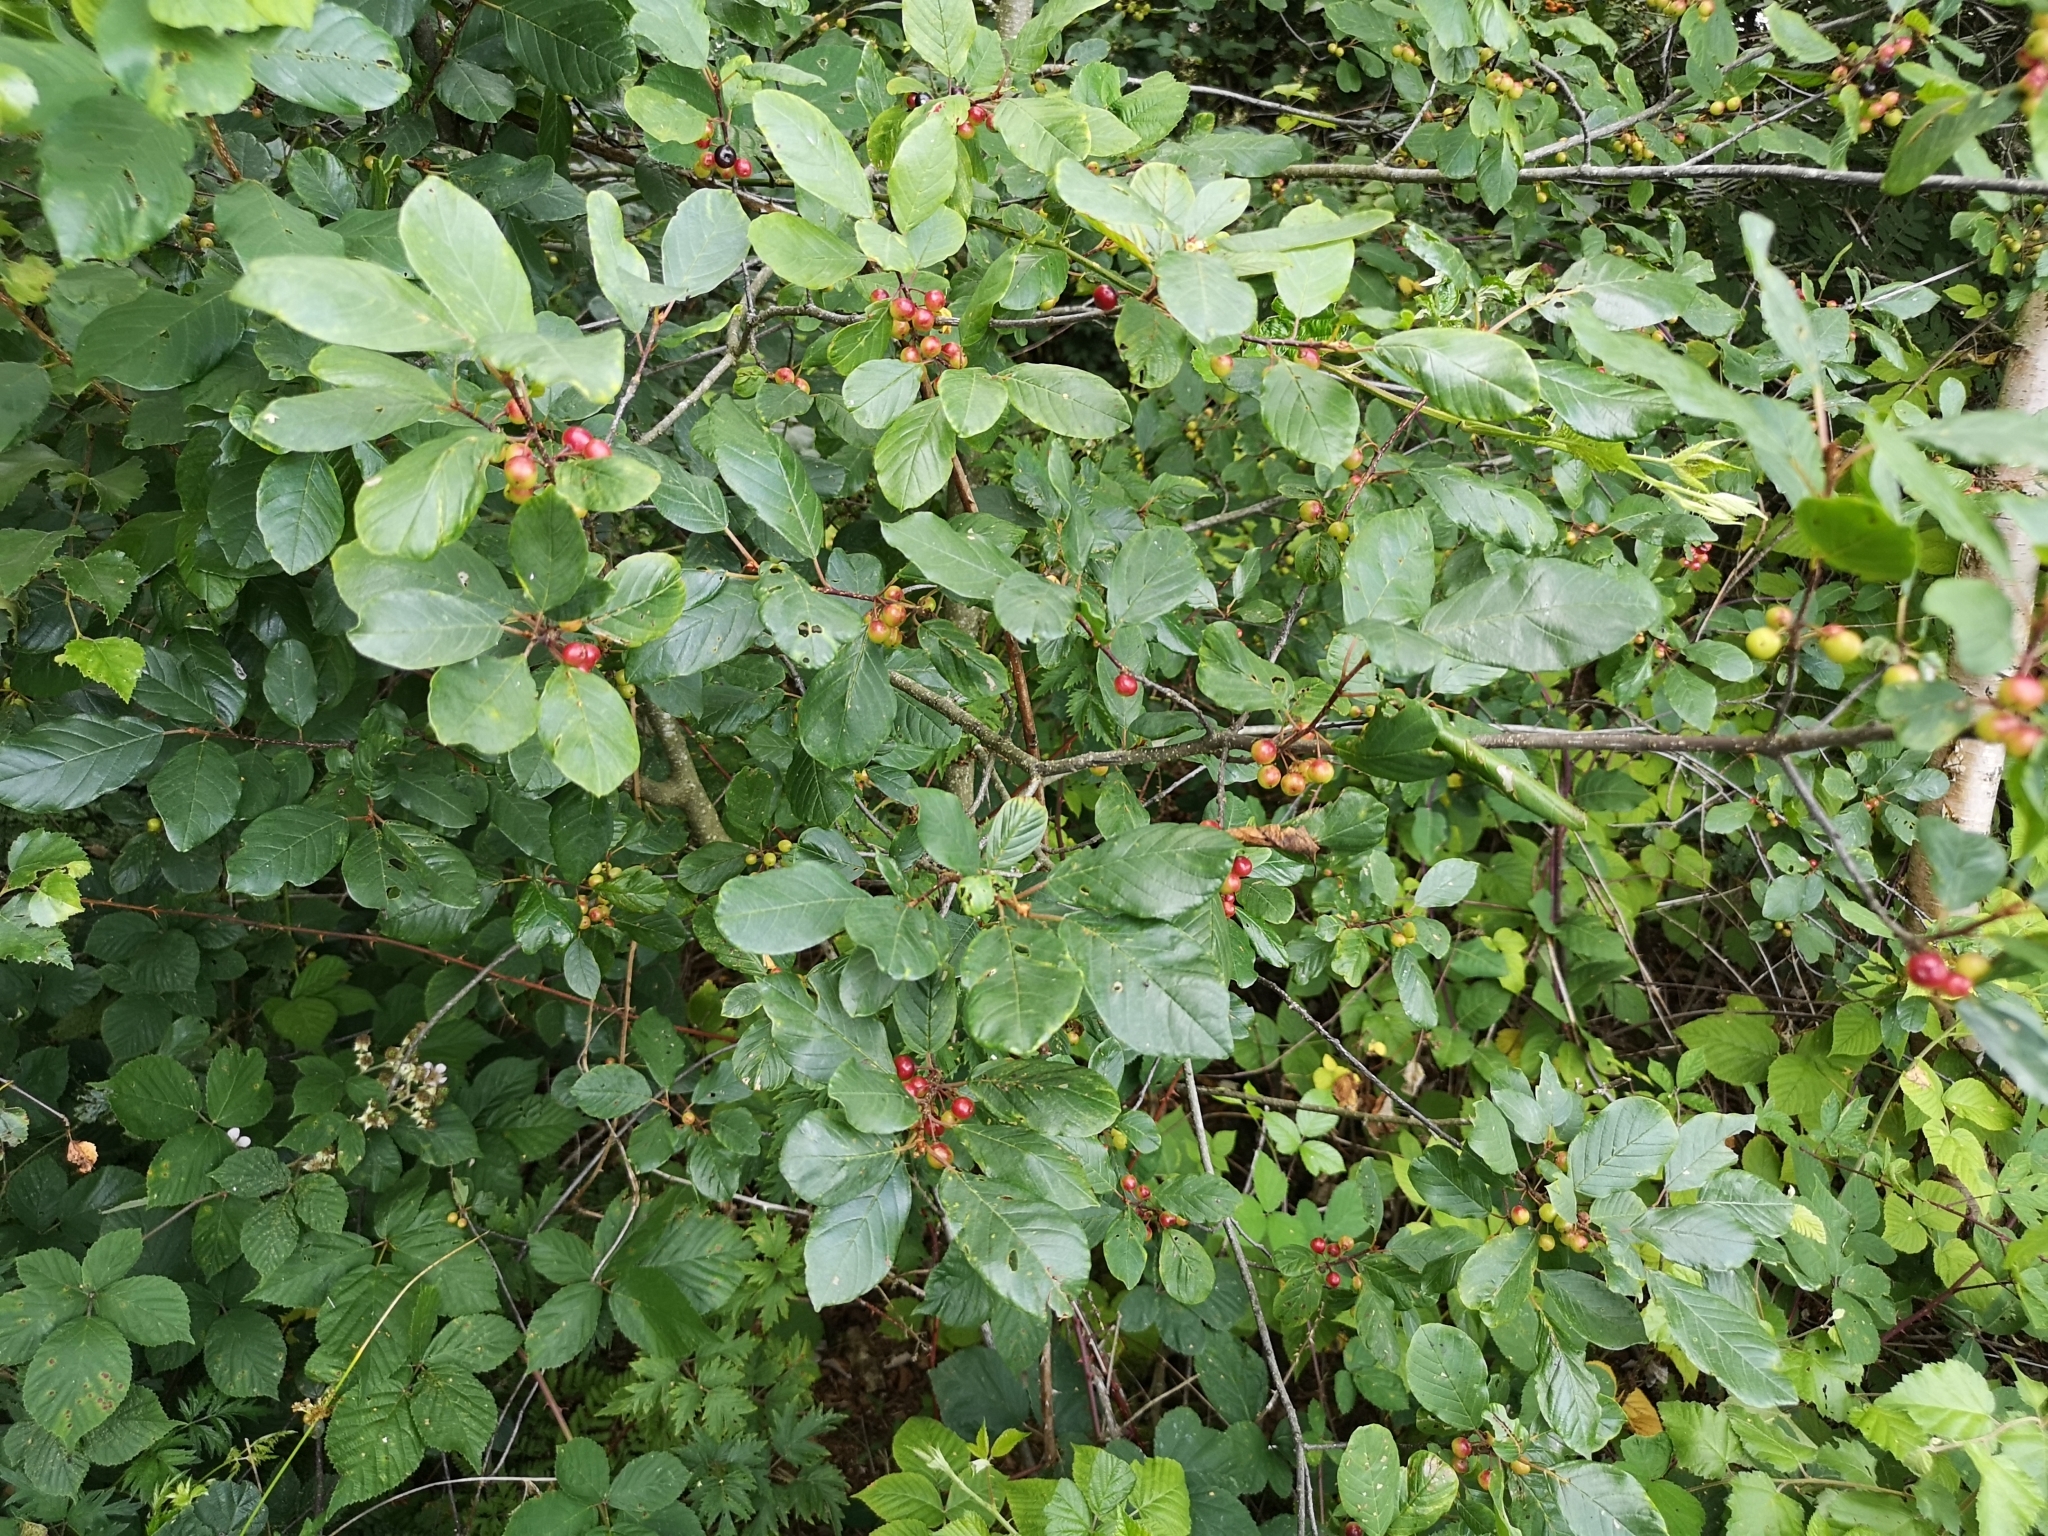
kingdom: Plantae
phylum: Tracheophyta
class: Magnoliopsida
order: Rosales
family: Rhamnaceae
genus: Frangula
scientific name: Frangula alnus
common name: Alder buckthorn
